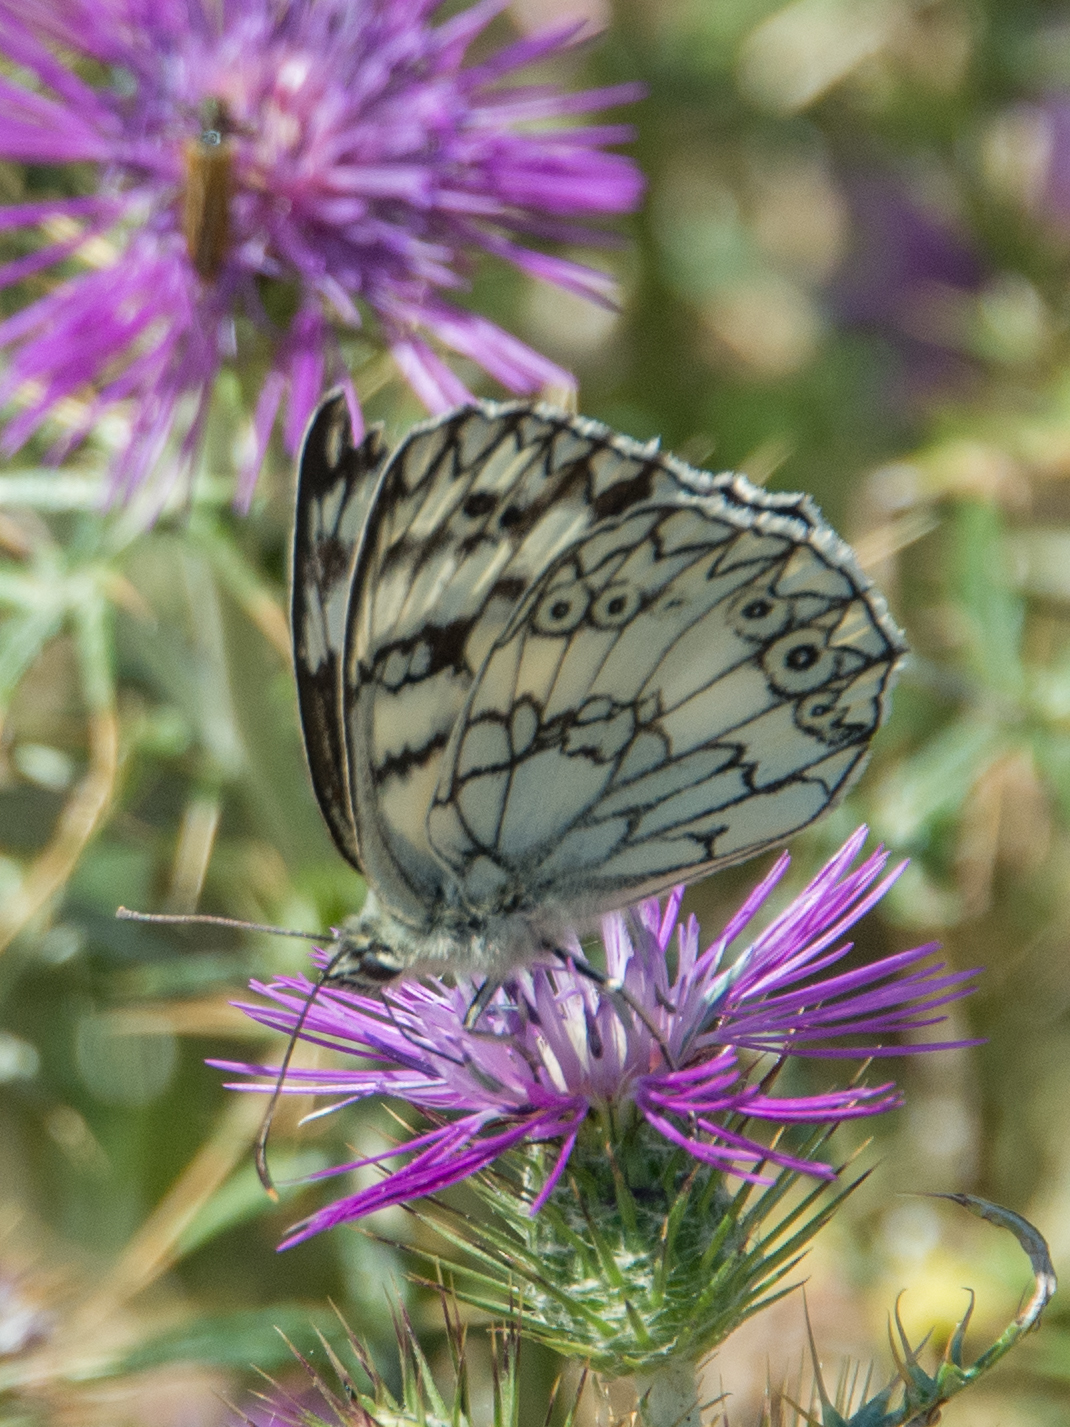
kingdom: Animalia
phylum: Arthropoda
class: Insecta
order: Lepidoptera
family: Nymphalidae
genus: Melanargia
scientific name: Melanargia japygia
